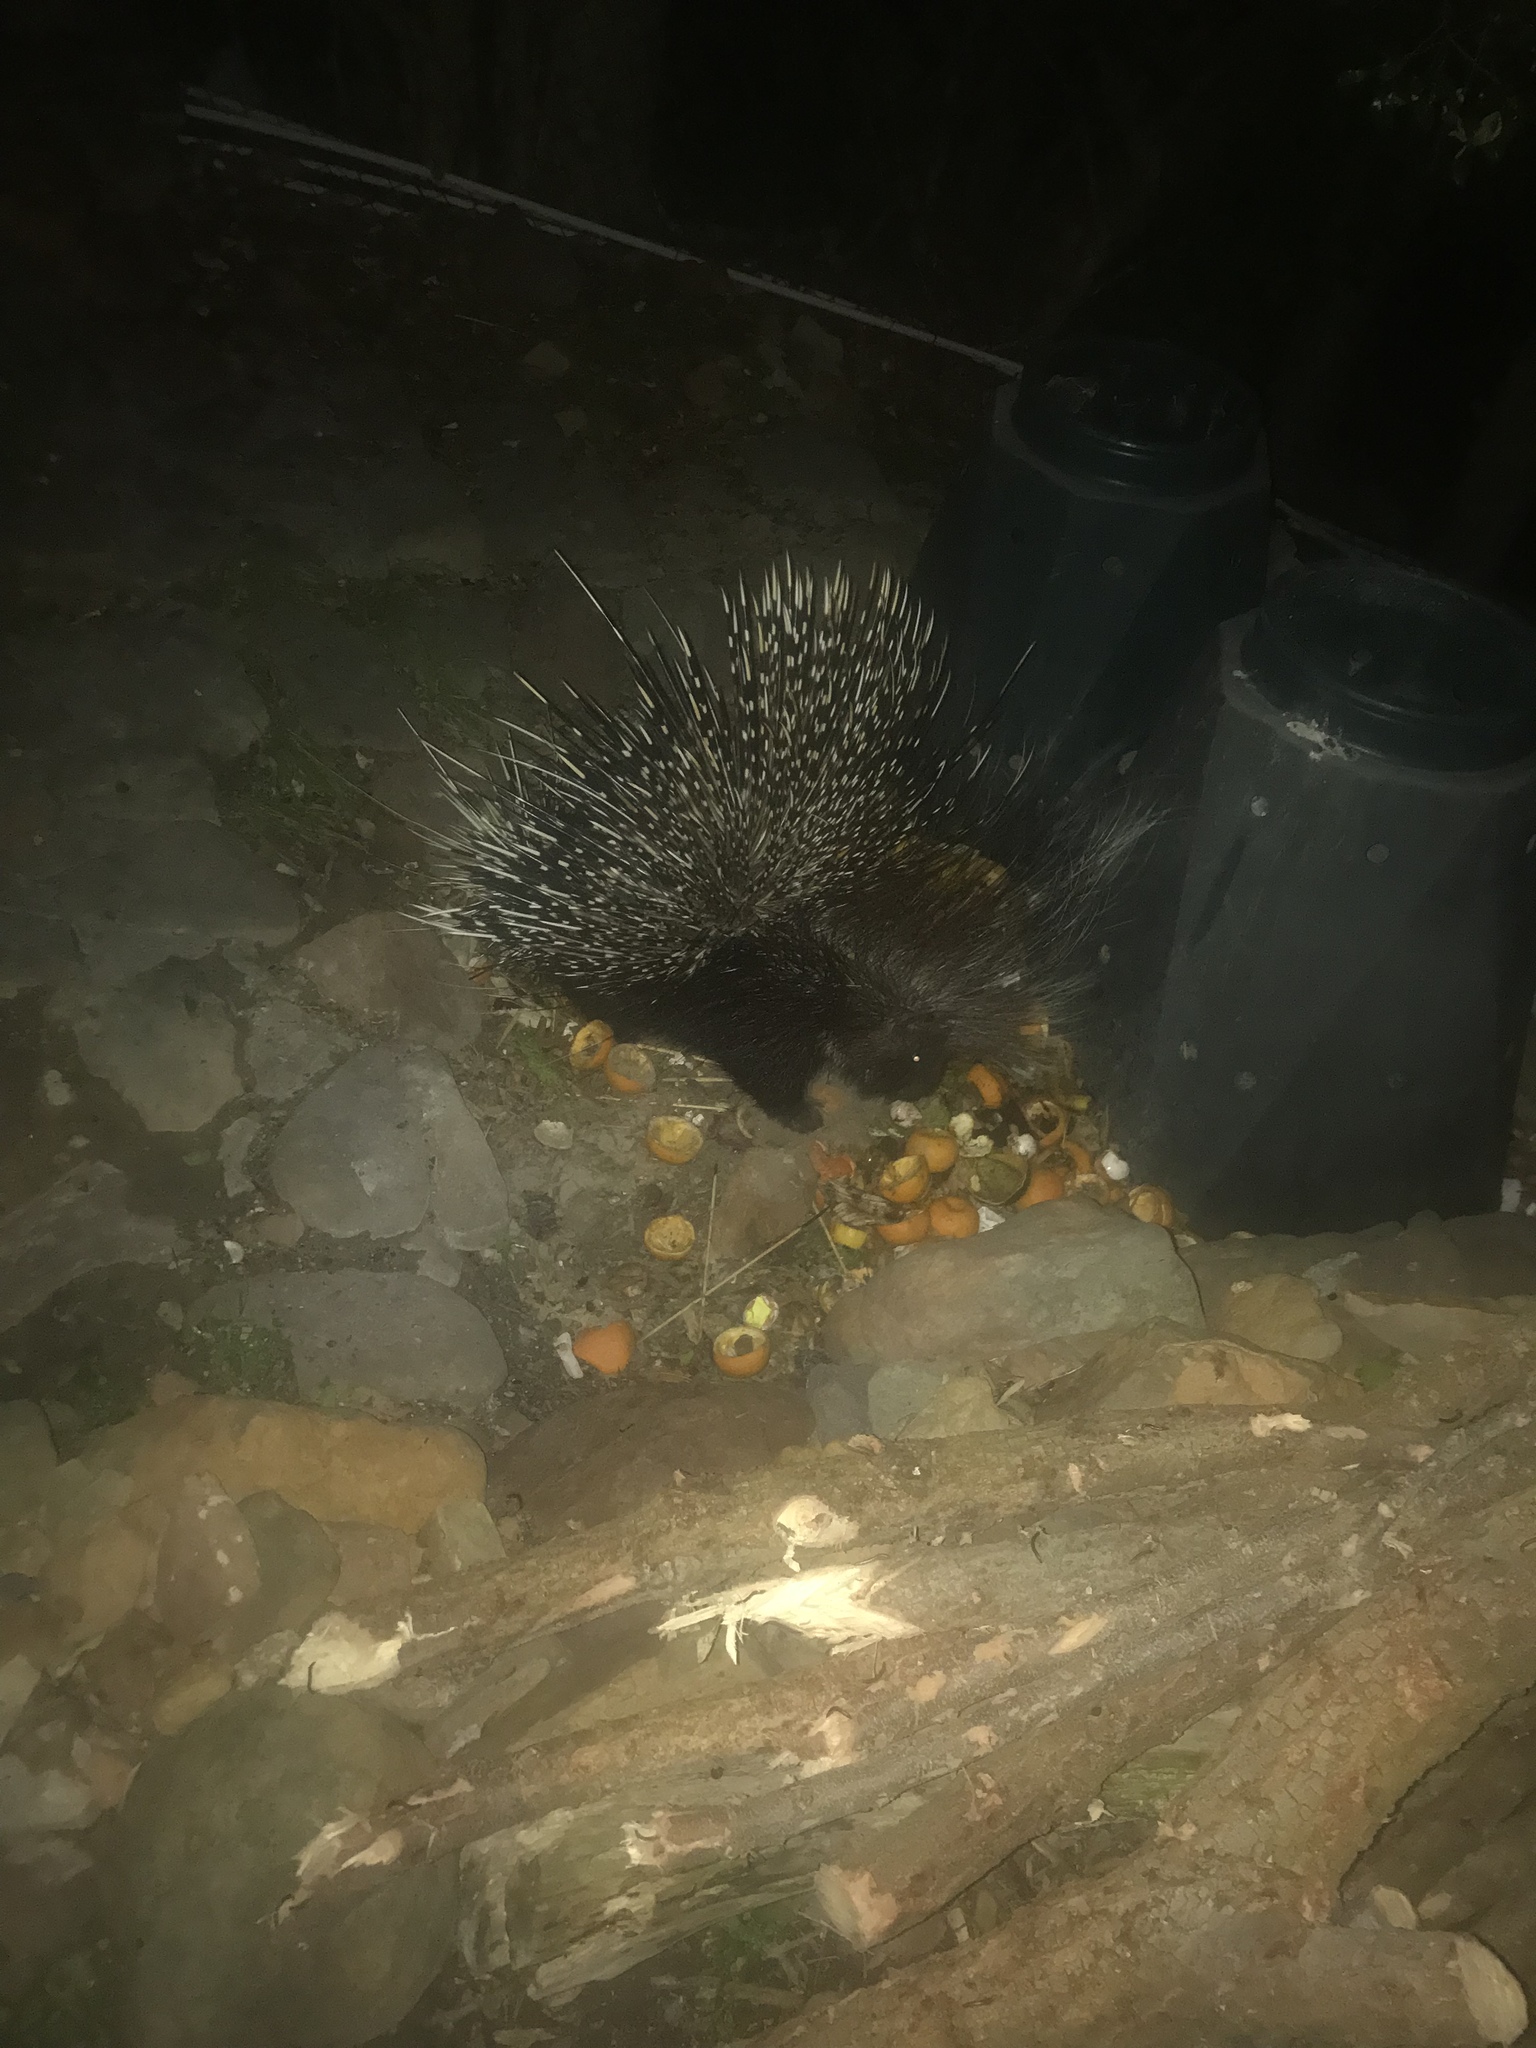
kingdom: Animalia
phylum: Chordata
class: Mammalia
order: Rodentia
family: Hystricidae
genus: Hystrix
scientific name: Hystrix africaeaustralis
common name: Cape porcupine
